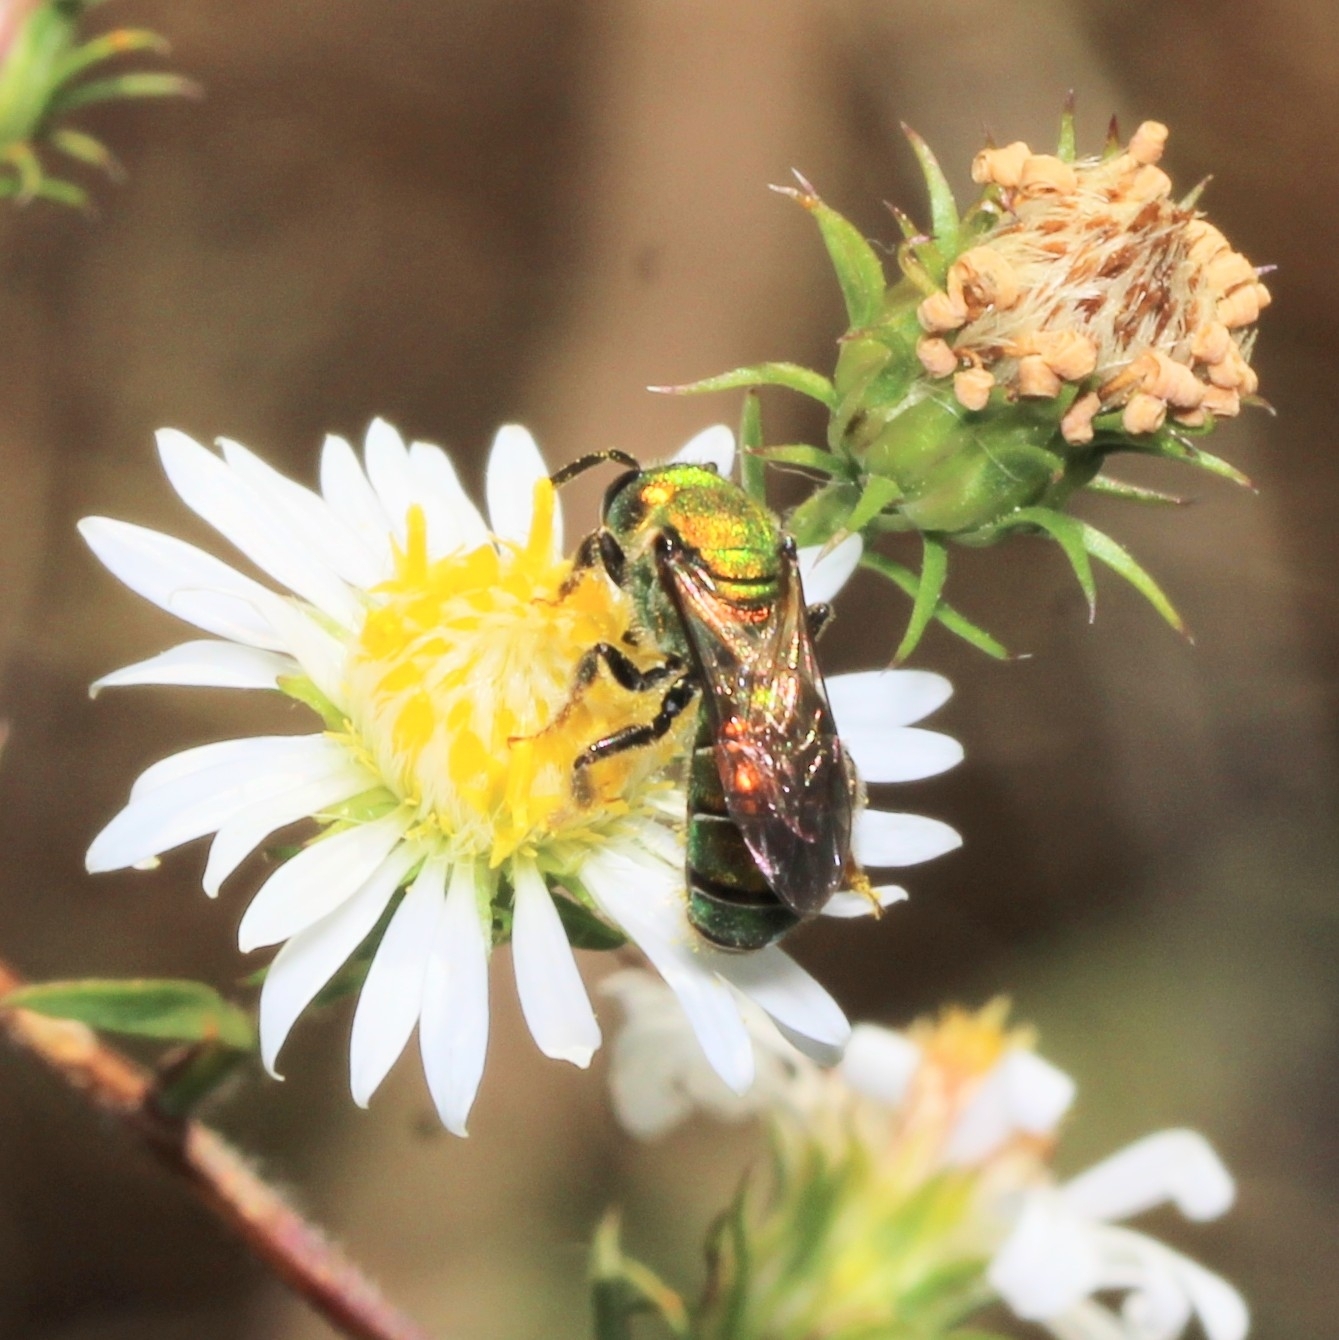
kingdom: Animalia
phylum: Arthropoda
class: Insecta
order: Hymenoptera
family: Halictidae
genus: Augochlora
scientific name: Augochlora pura
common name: Pure green sweat bee
